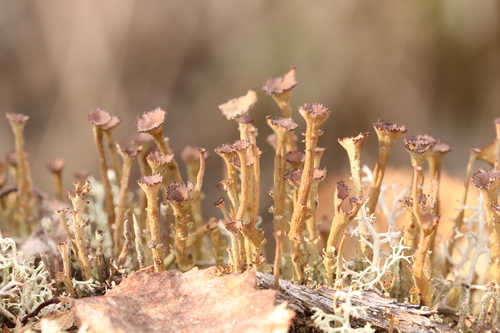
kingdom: Fungi
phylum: Ascomycota
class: Lecanoromycetes
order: Lecanorales
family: Cladoniaceae
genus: Cladonia
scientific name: Cladonia gracilis
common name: Smooth clad lichen
